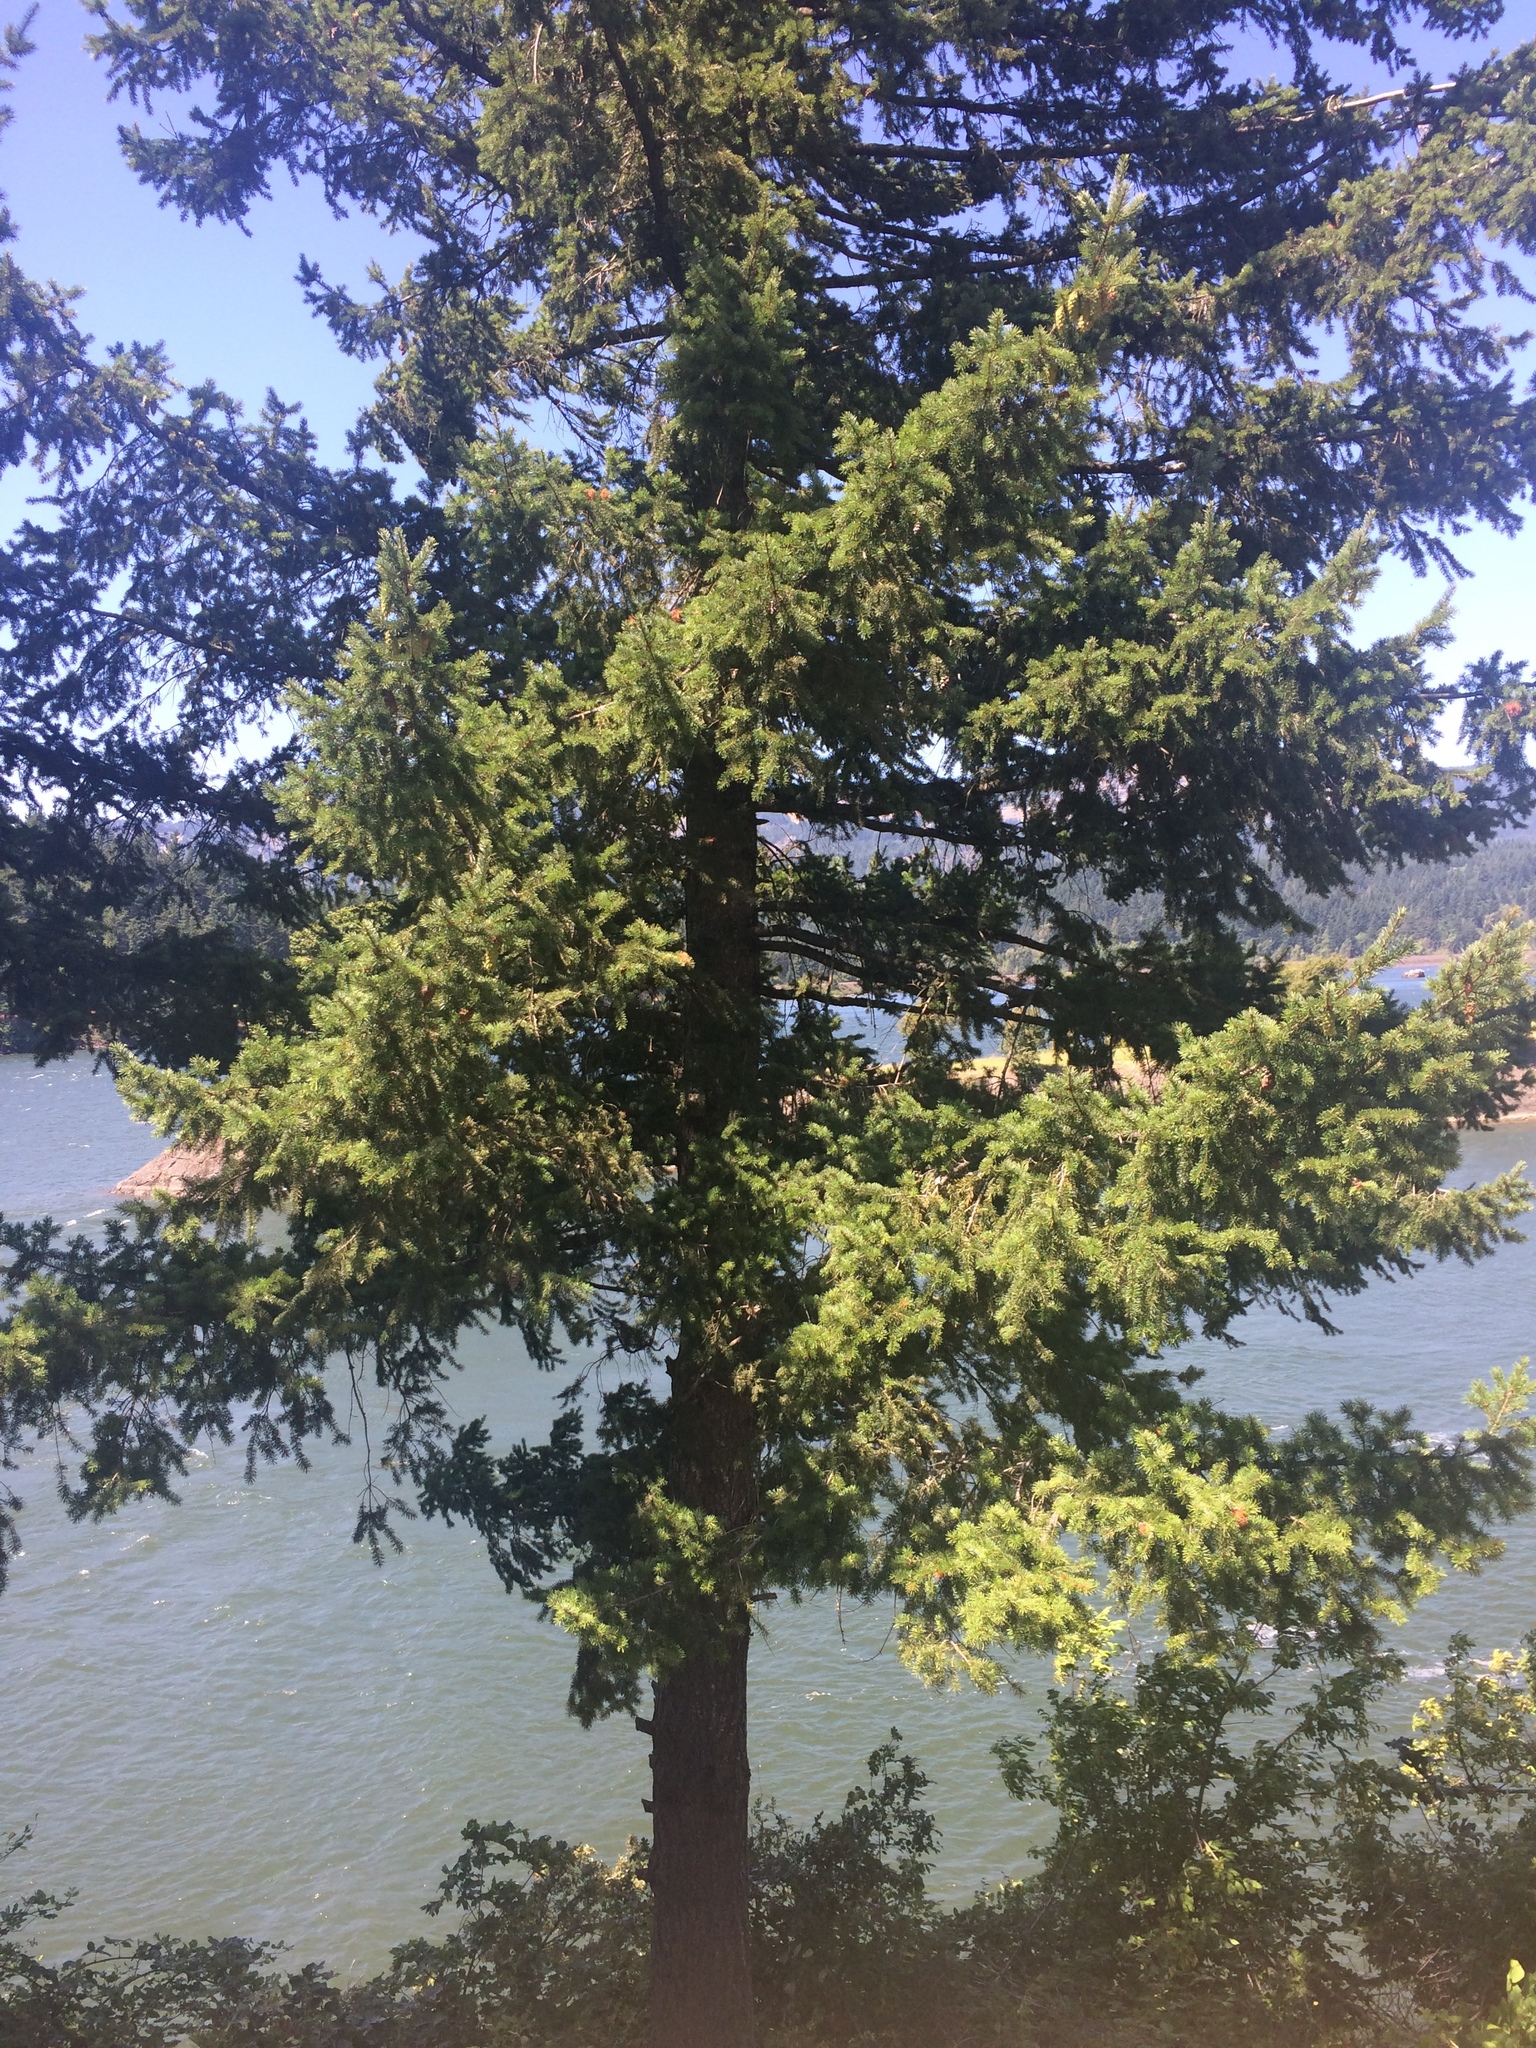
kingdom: Plantae
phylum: Tracheophyta
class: Pinopsida
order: Pinales
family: Pinaceae
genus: Pseudotsuga
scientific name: Pseudotsuga menziesii
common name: Douglas fir
